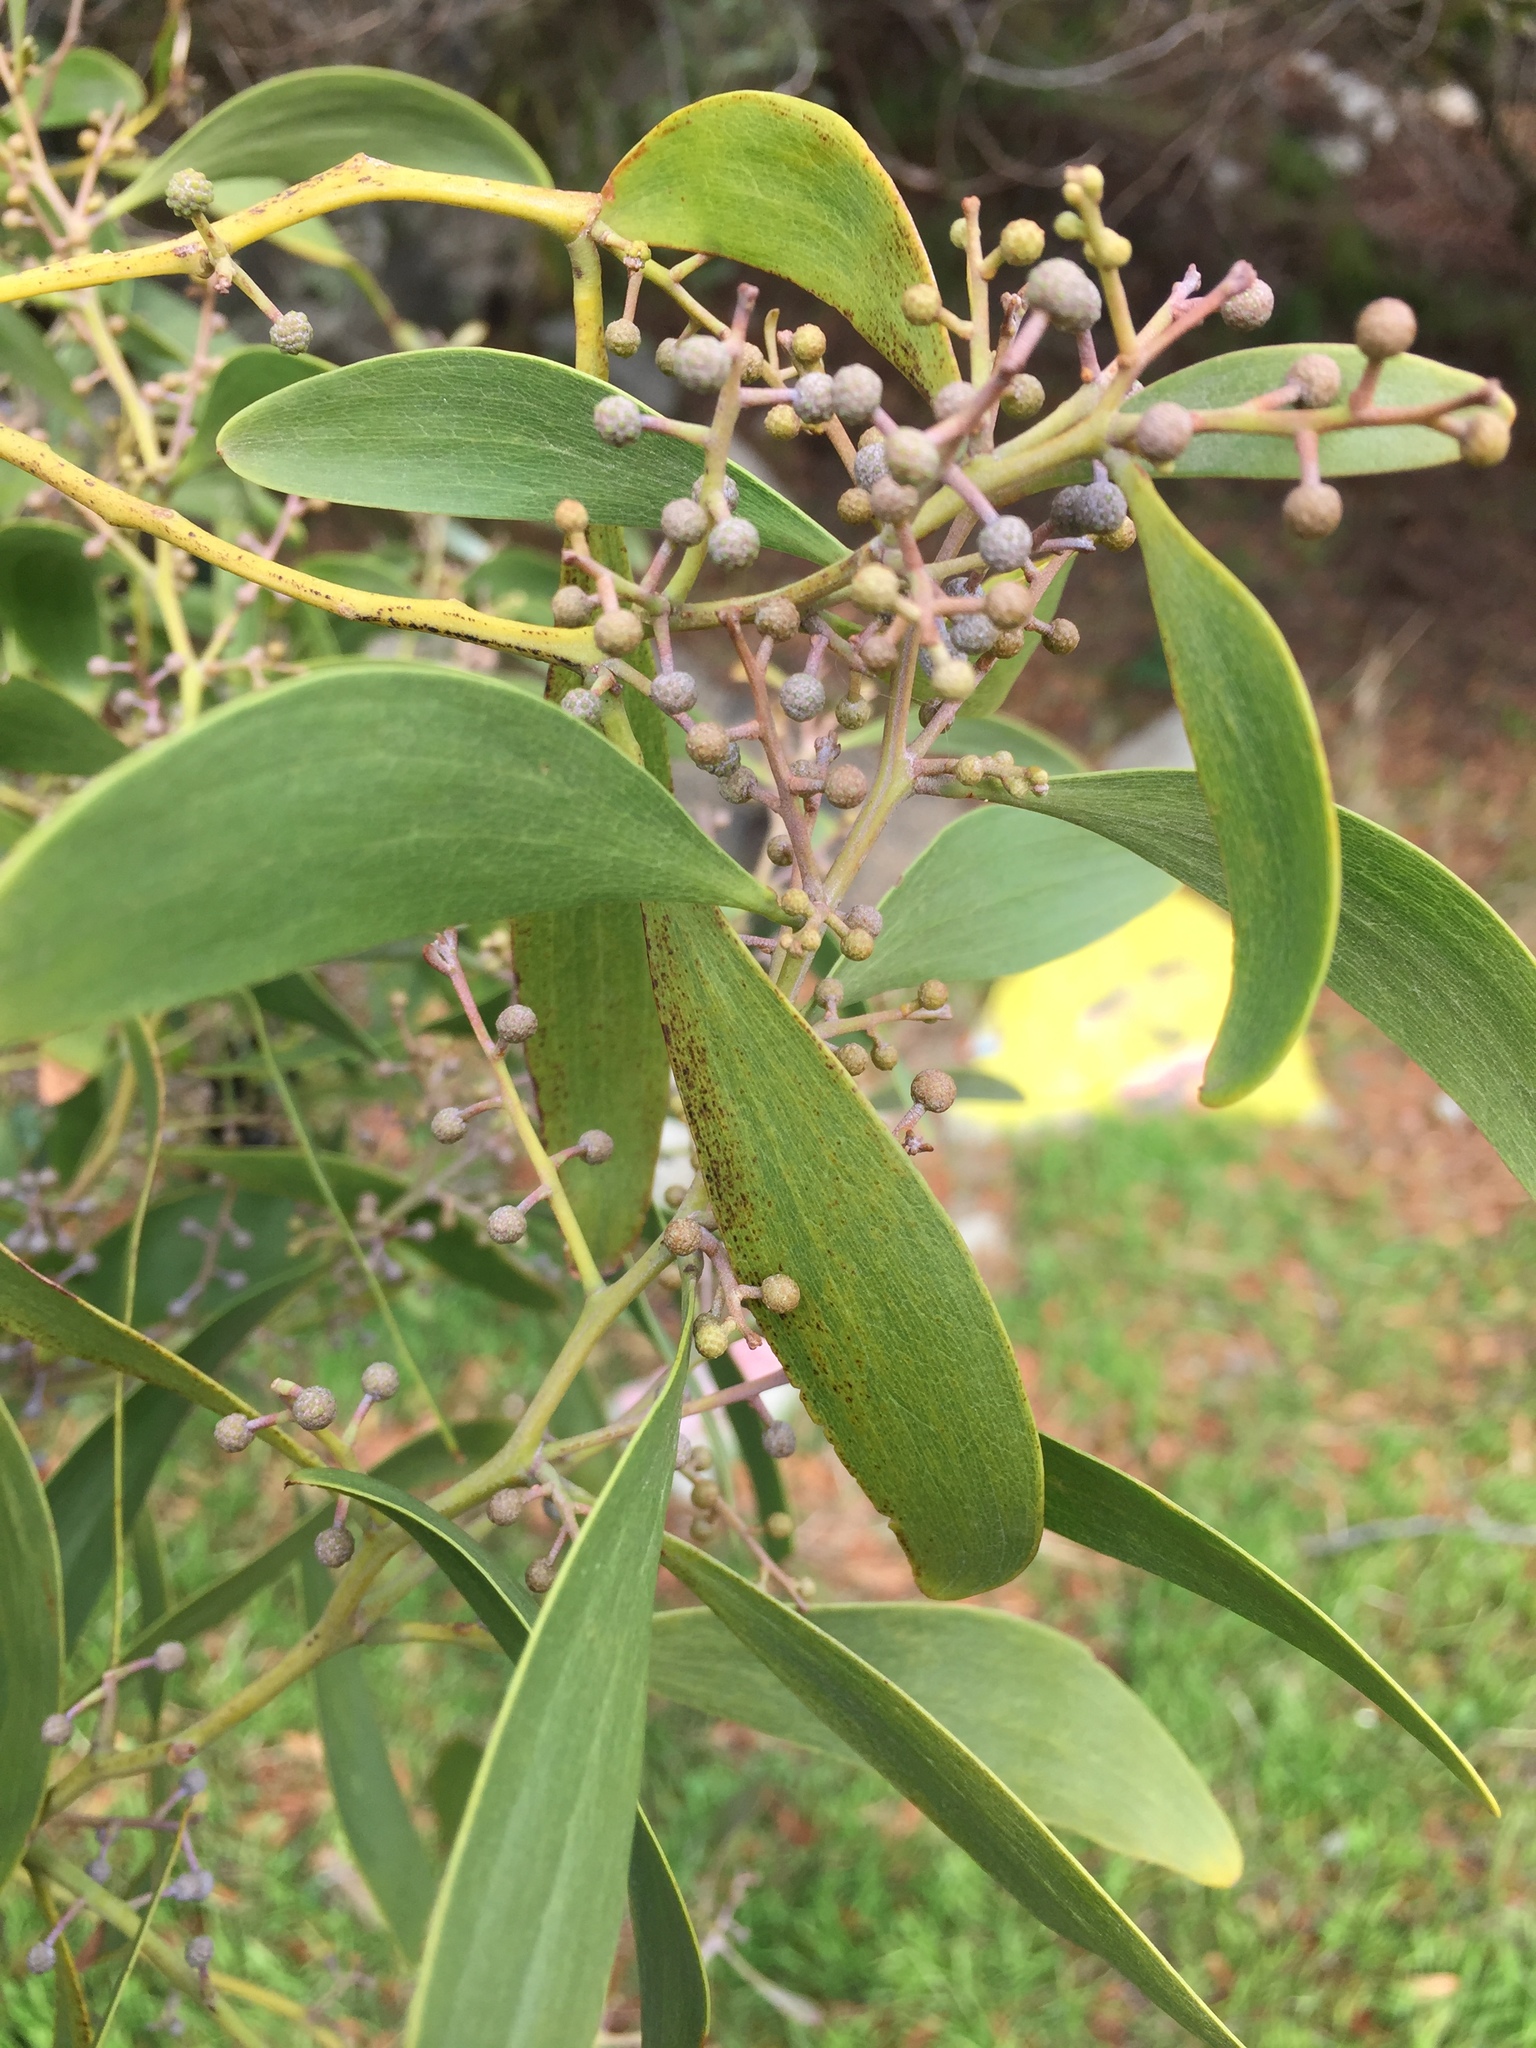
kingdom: Plantae
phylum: Tracheophyta
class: Magnoliopsida
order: Fabales
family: Fabaceae
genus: Acacia
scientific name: Acacia melanoxylon
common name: Blackwood
